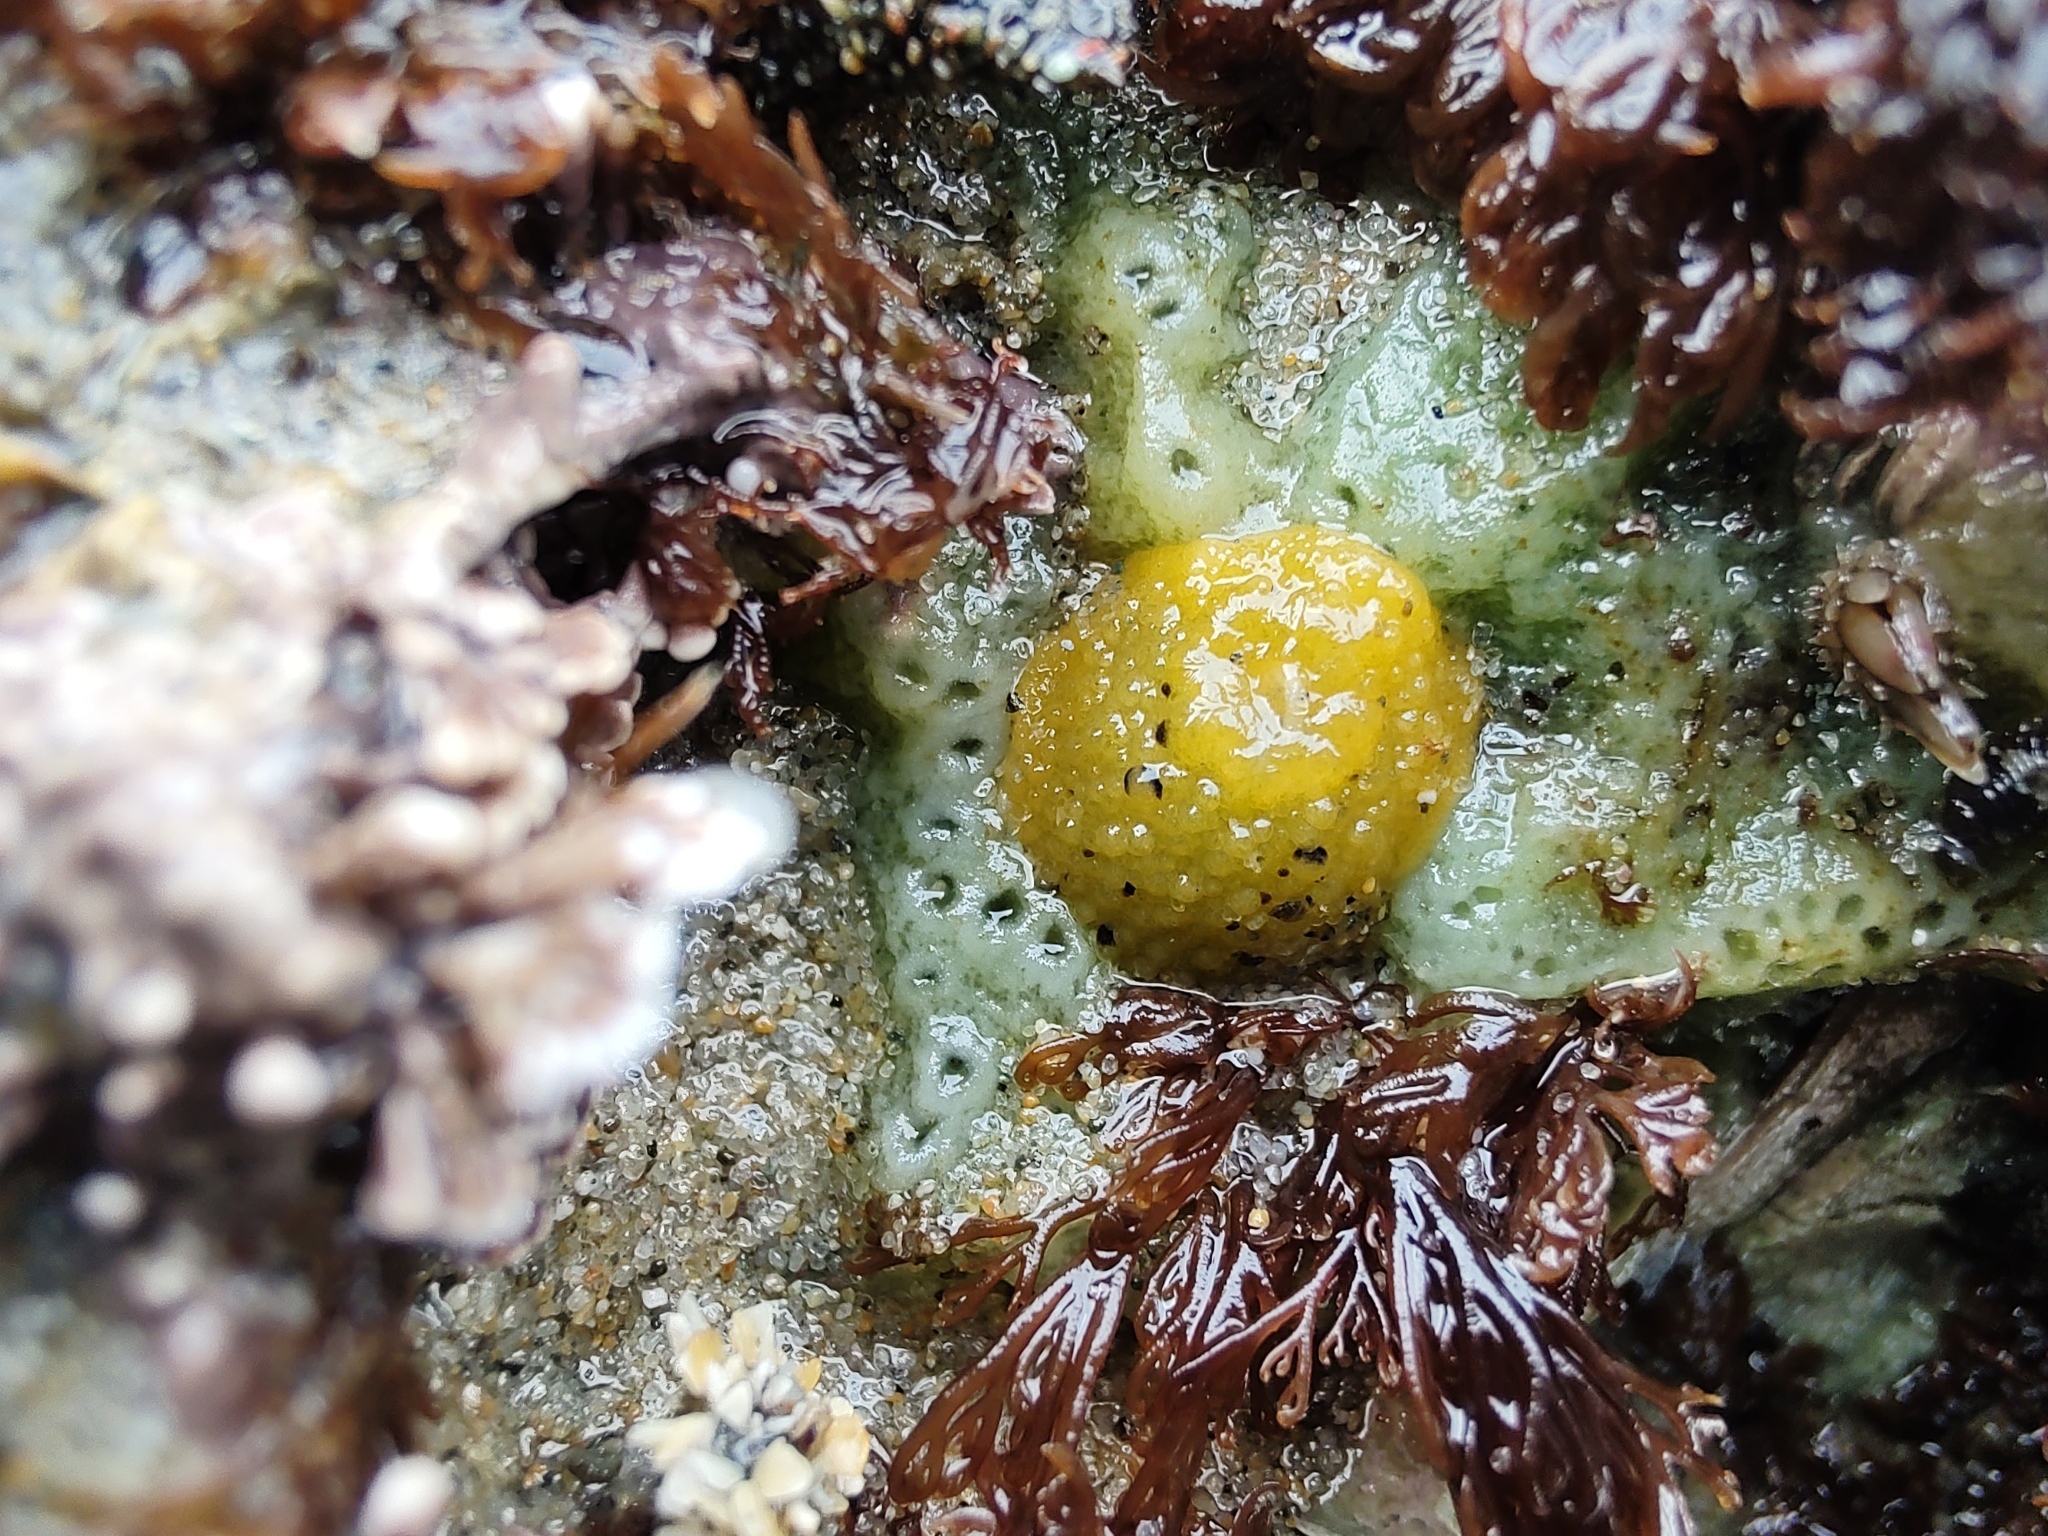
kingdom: Animalia
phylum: Mollusca
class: Gastropoda
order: Nudibranchia
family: Dorididae
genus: Doris
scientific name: Doris montereyensis
